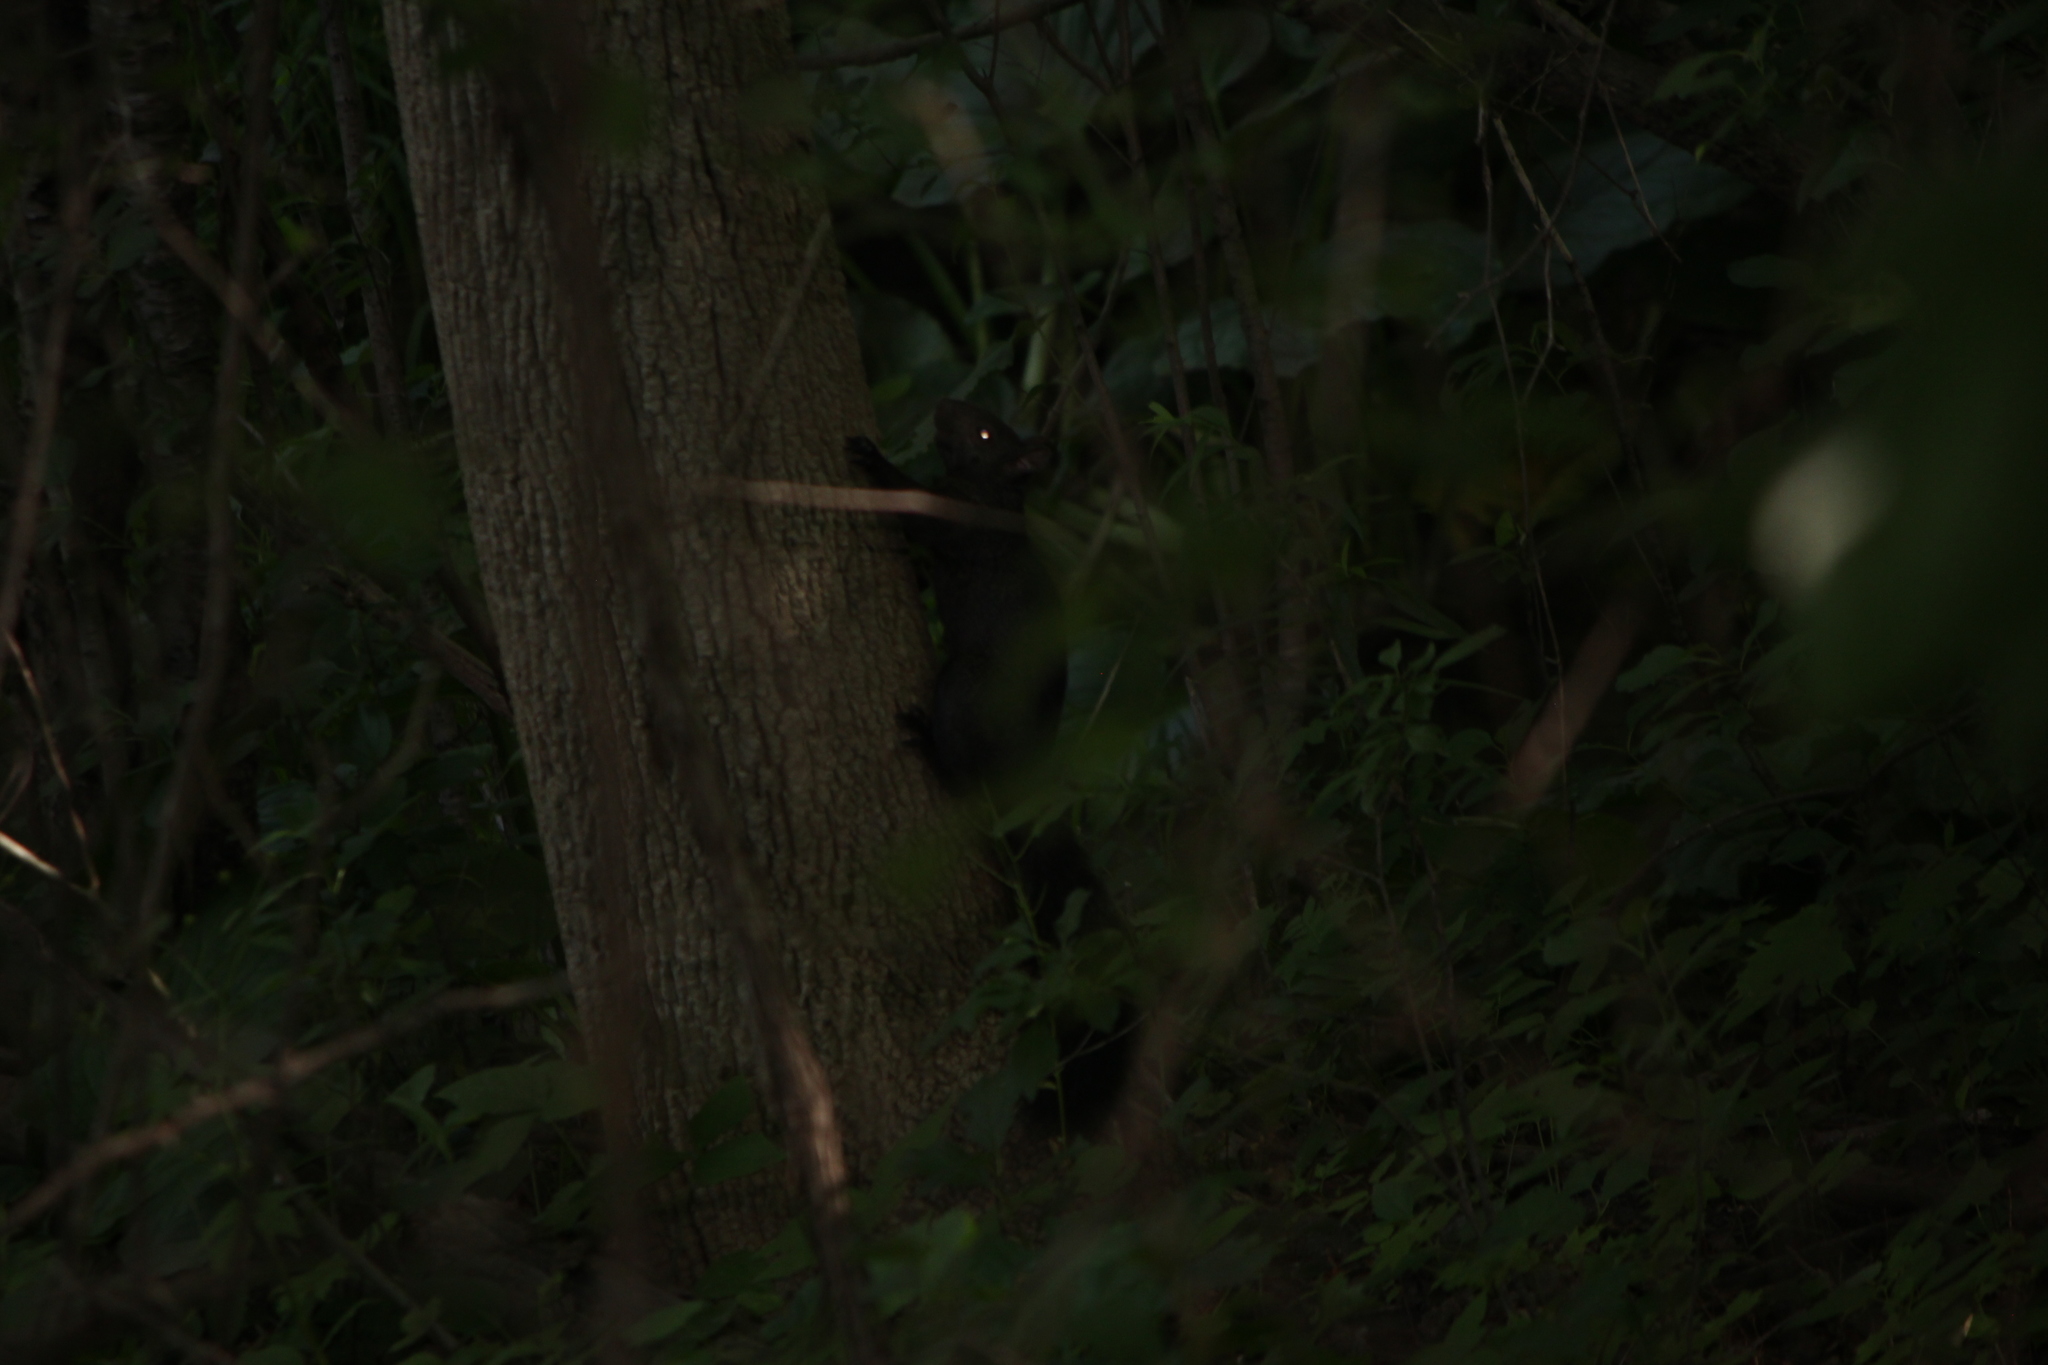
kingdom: Animalia
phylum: Chordata
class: Mammalia
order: Rodentia
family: Sciuridae
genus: Sciurus
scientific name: Sciurus carolinensis
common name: Eastern gray squirrel
